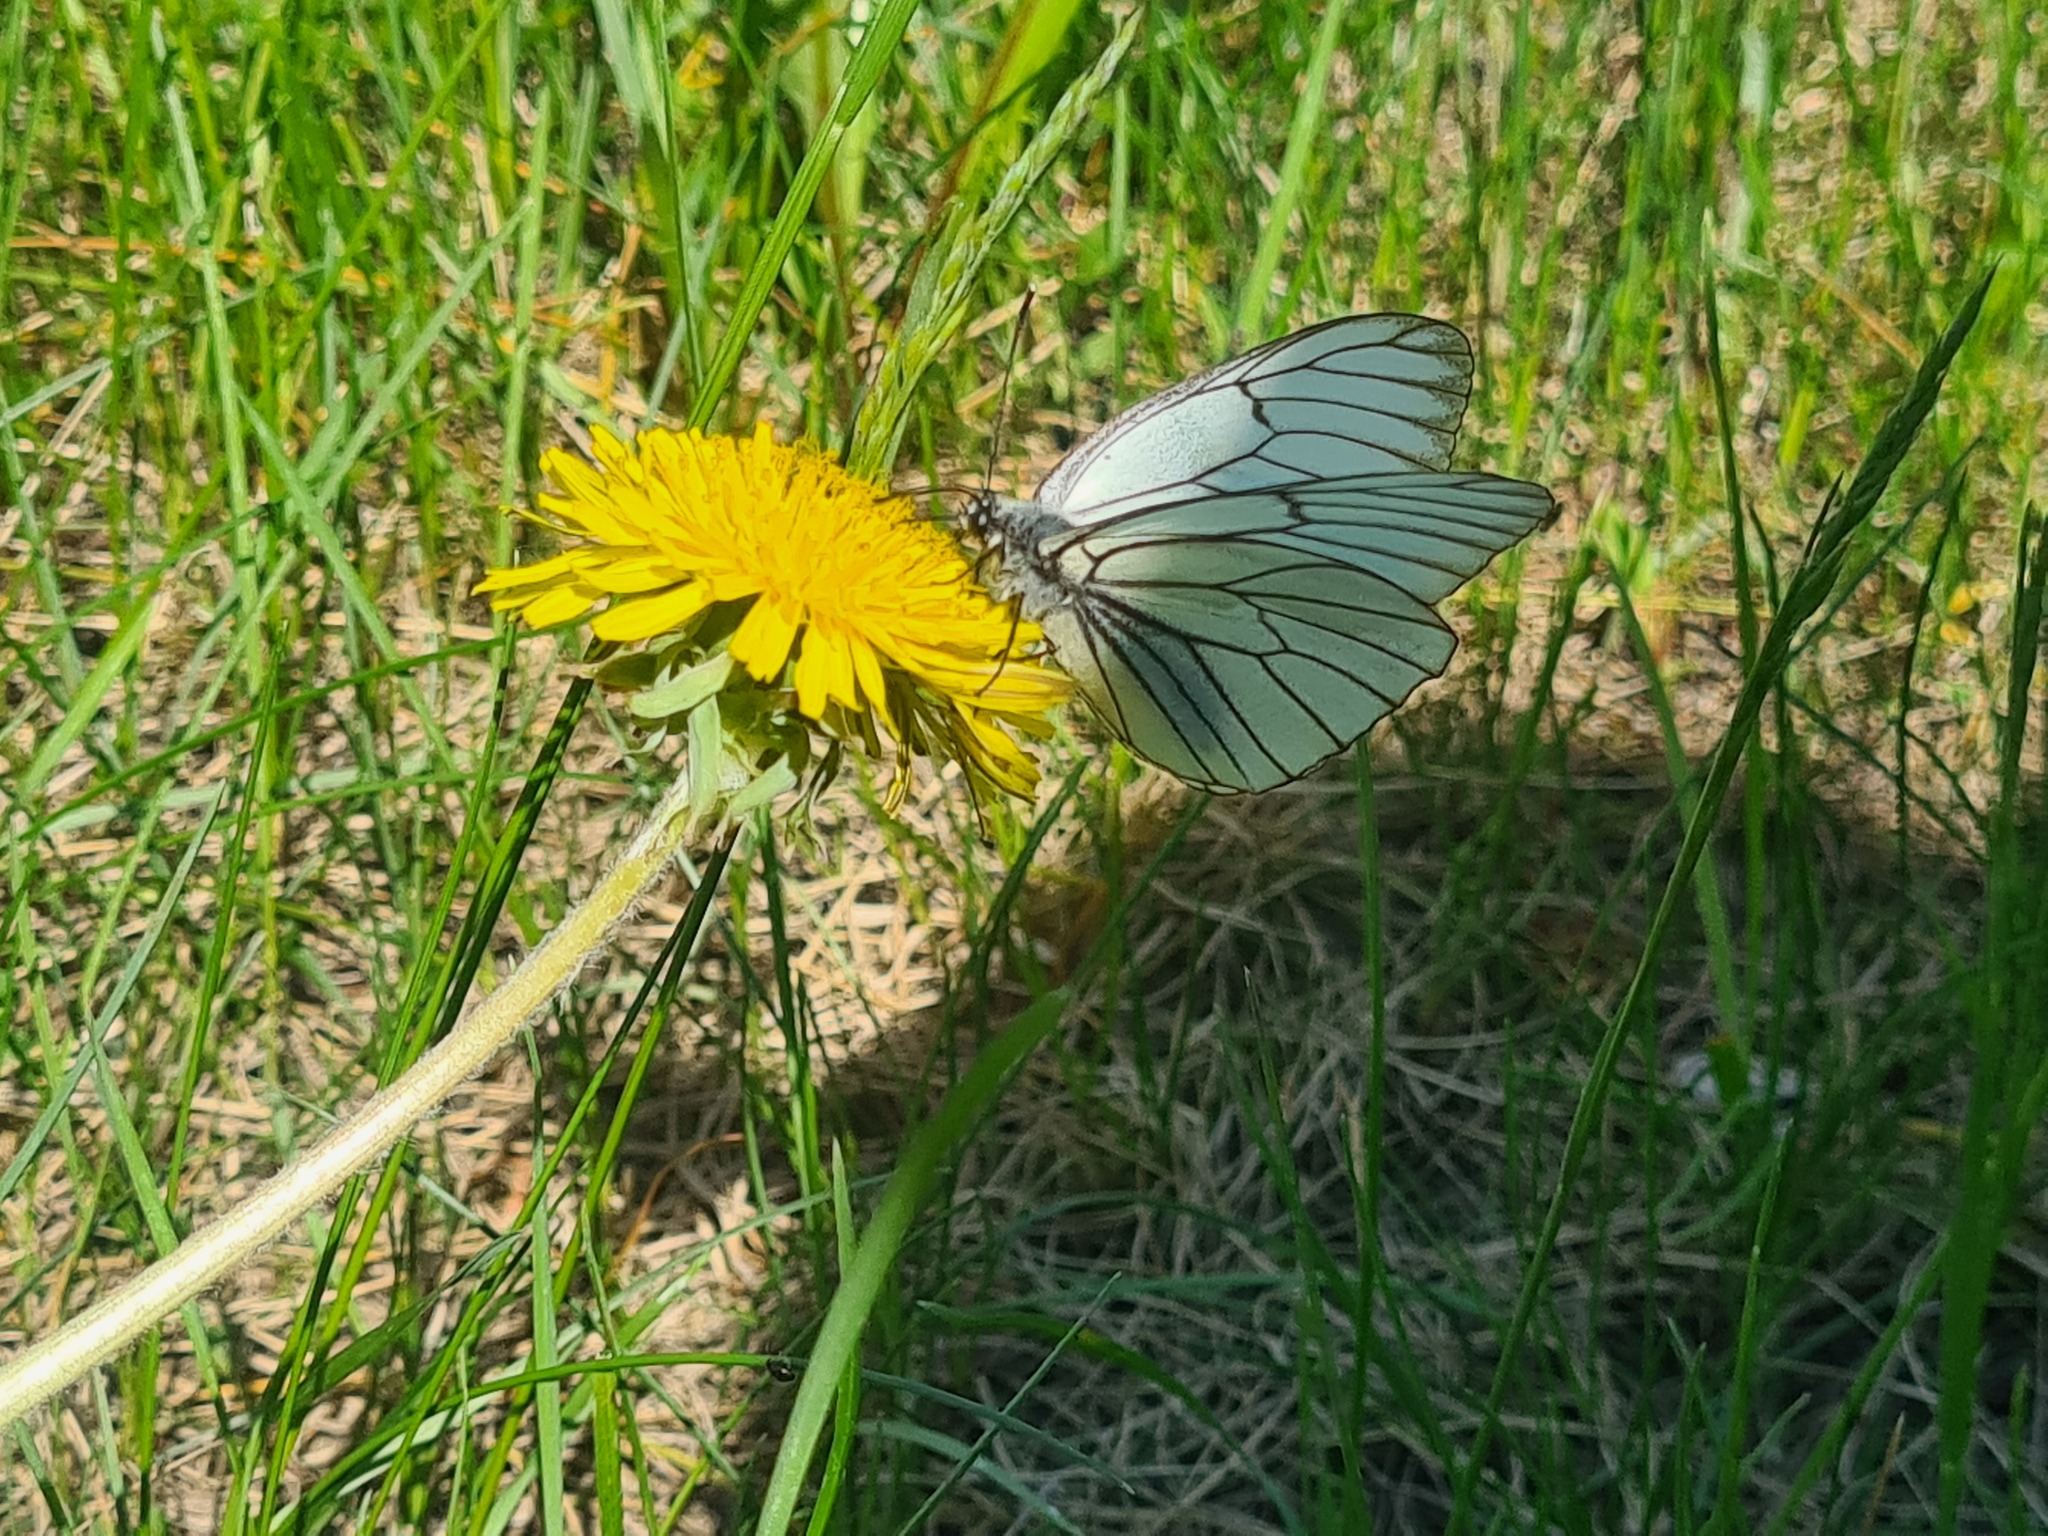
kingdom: Animalia
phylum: Arthropoda
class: Insecta
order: Lepidoptera
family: Pieridae
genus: Aporia
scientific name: Aporia crataegi
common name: Black-veined white
